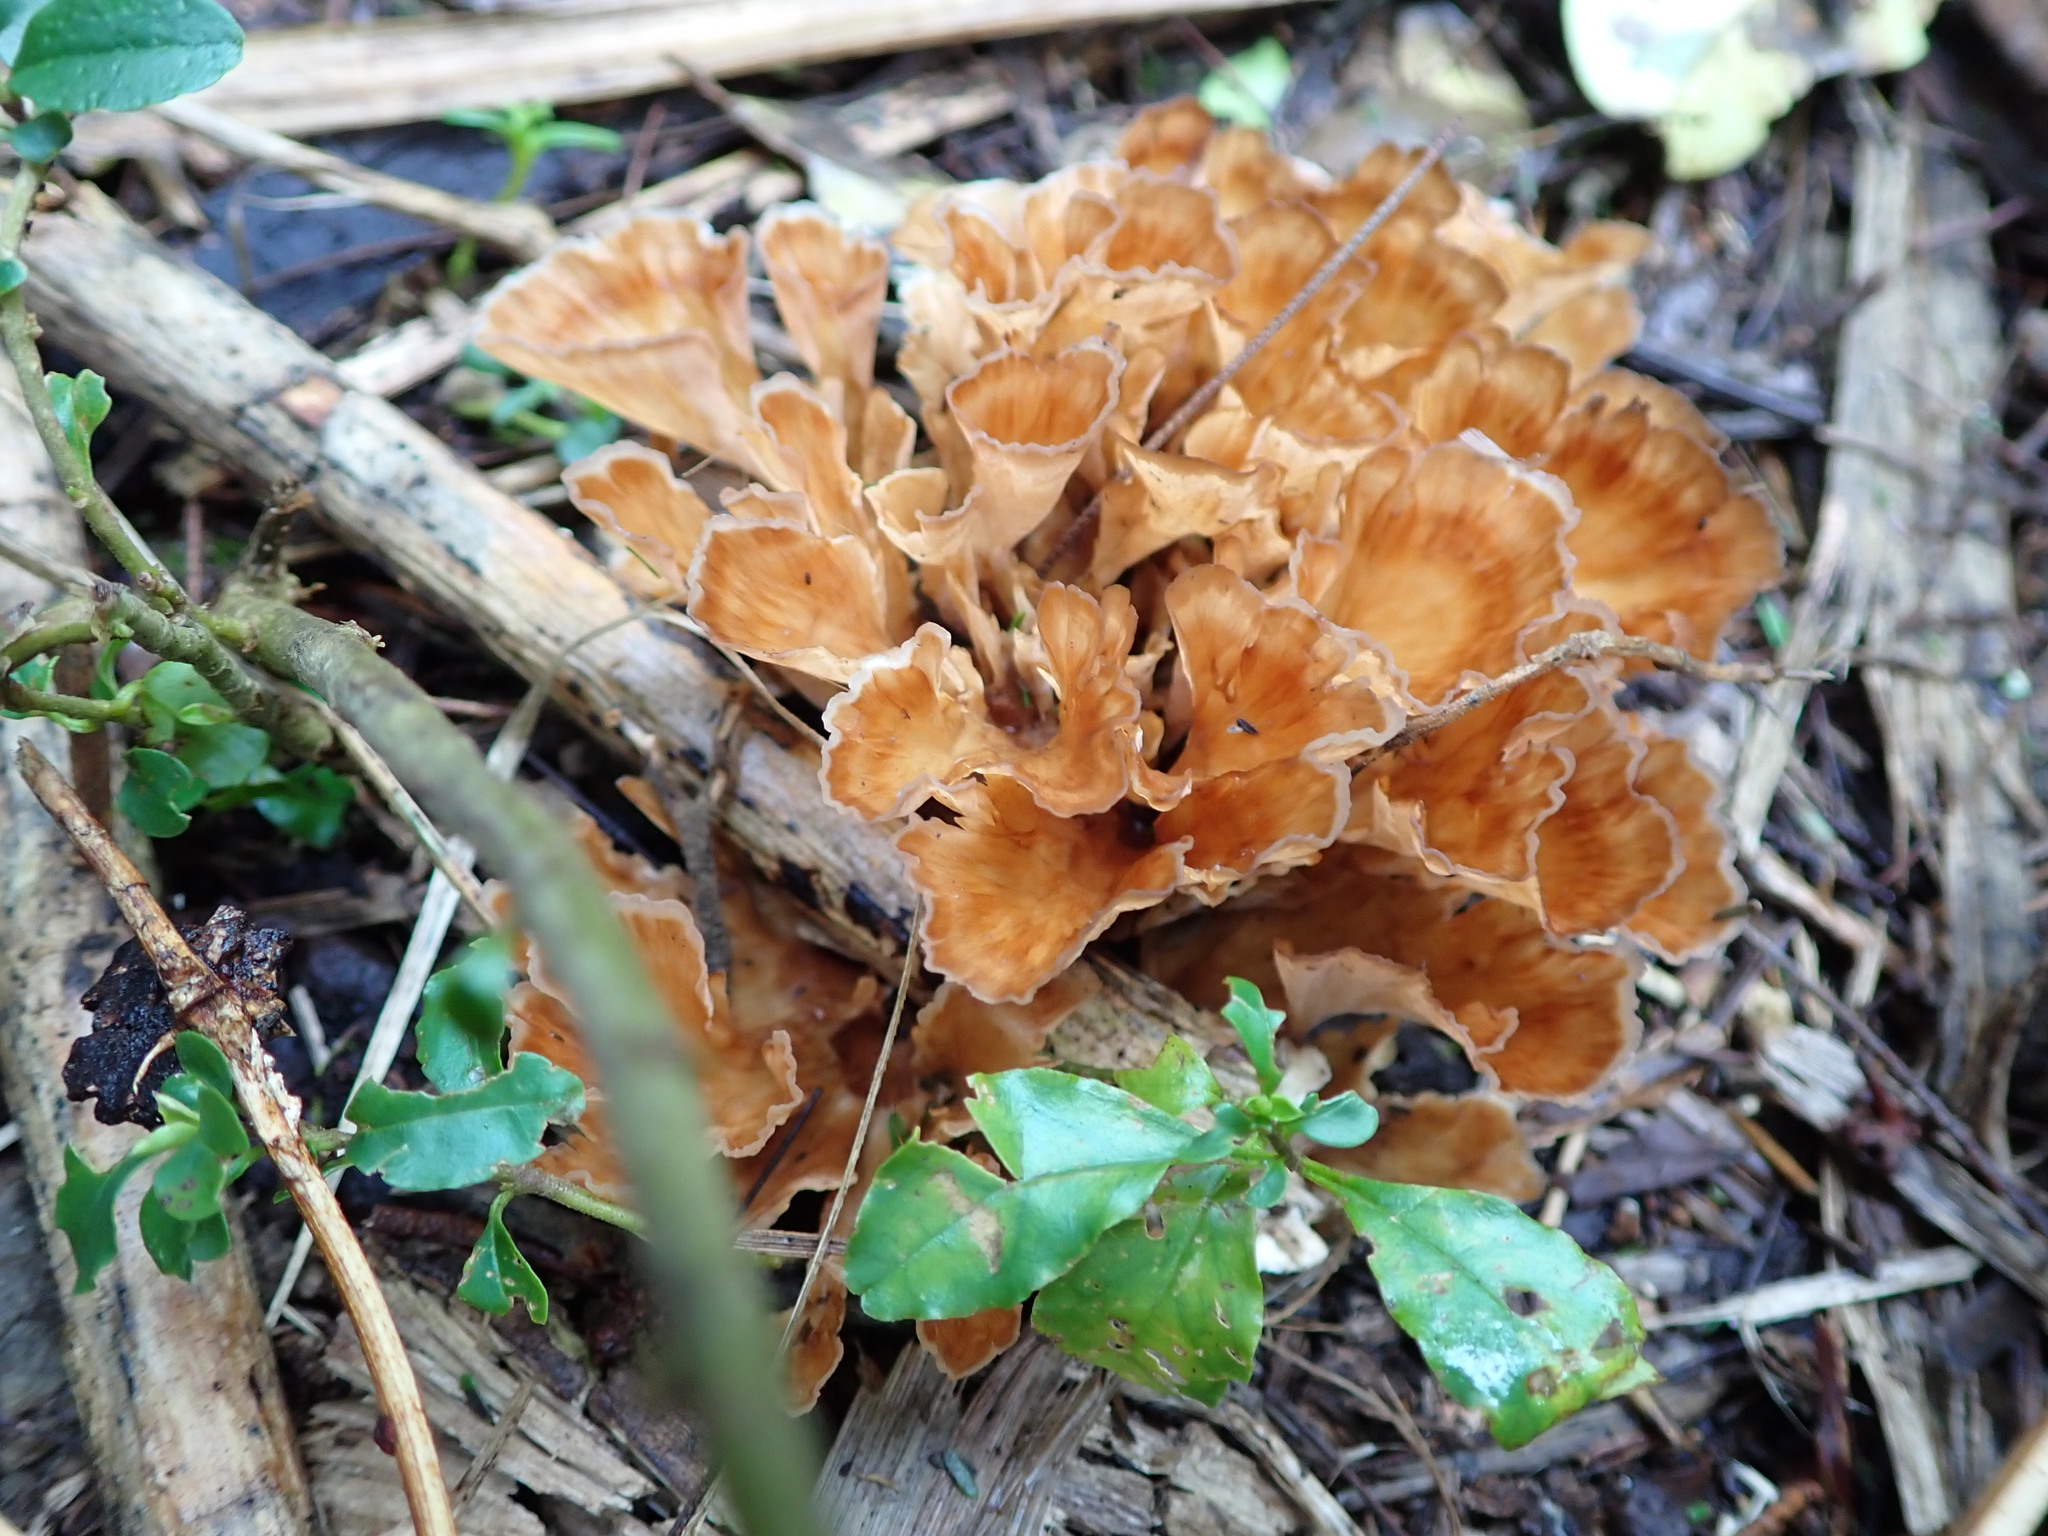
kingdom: Fungi
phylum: Basidiomycota
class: Agaricomycetes
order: Polyporales
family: Podoscyphaceae
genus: Podoscypha
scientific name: Podoscypha petalodes
